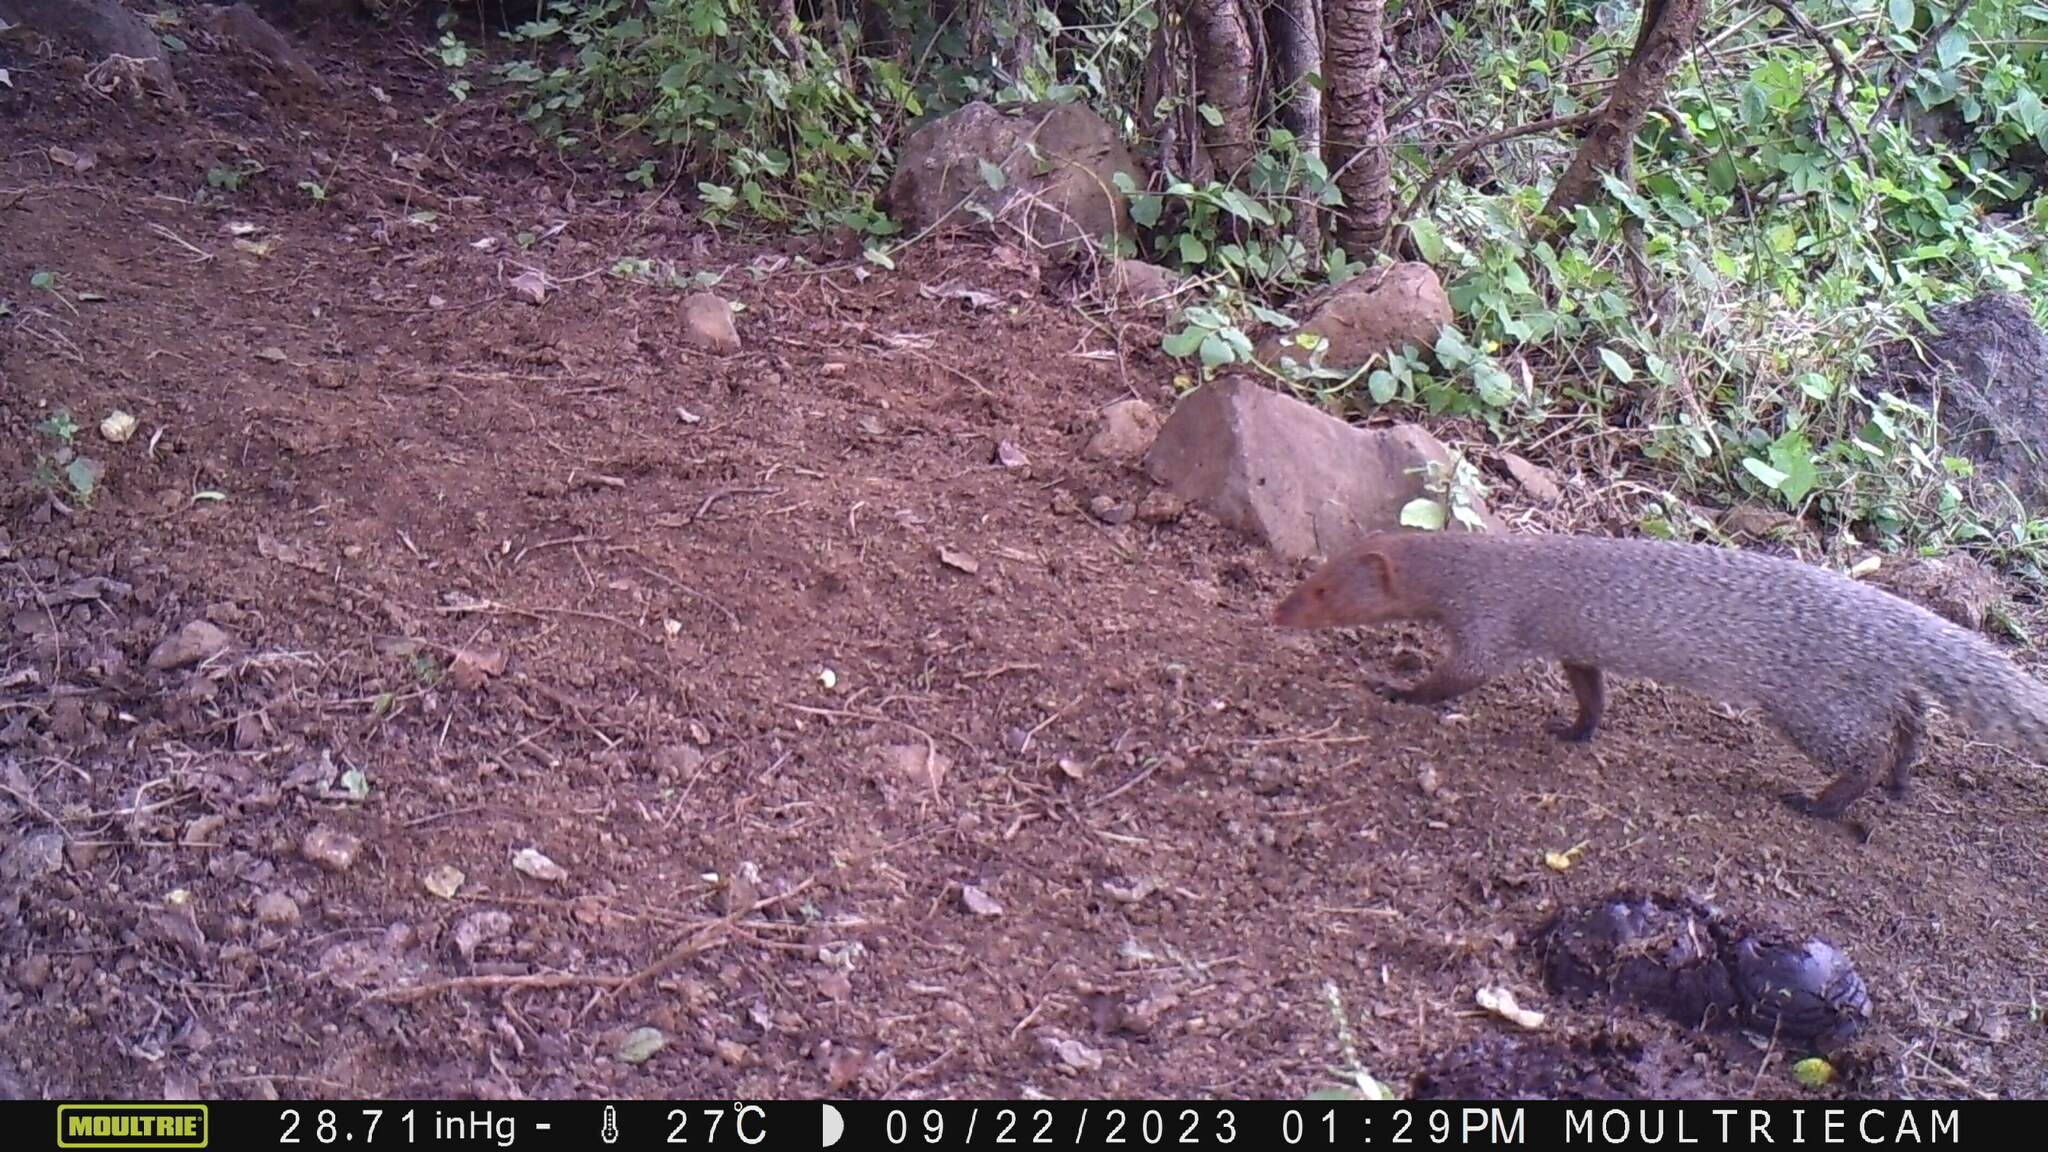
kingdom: Animalia
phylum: Chordata
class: Mammalia
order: Carnivora
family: Herpestidae
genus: Herpestes
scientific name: Herpestes edwardsi
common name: Indian gray mongoose
